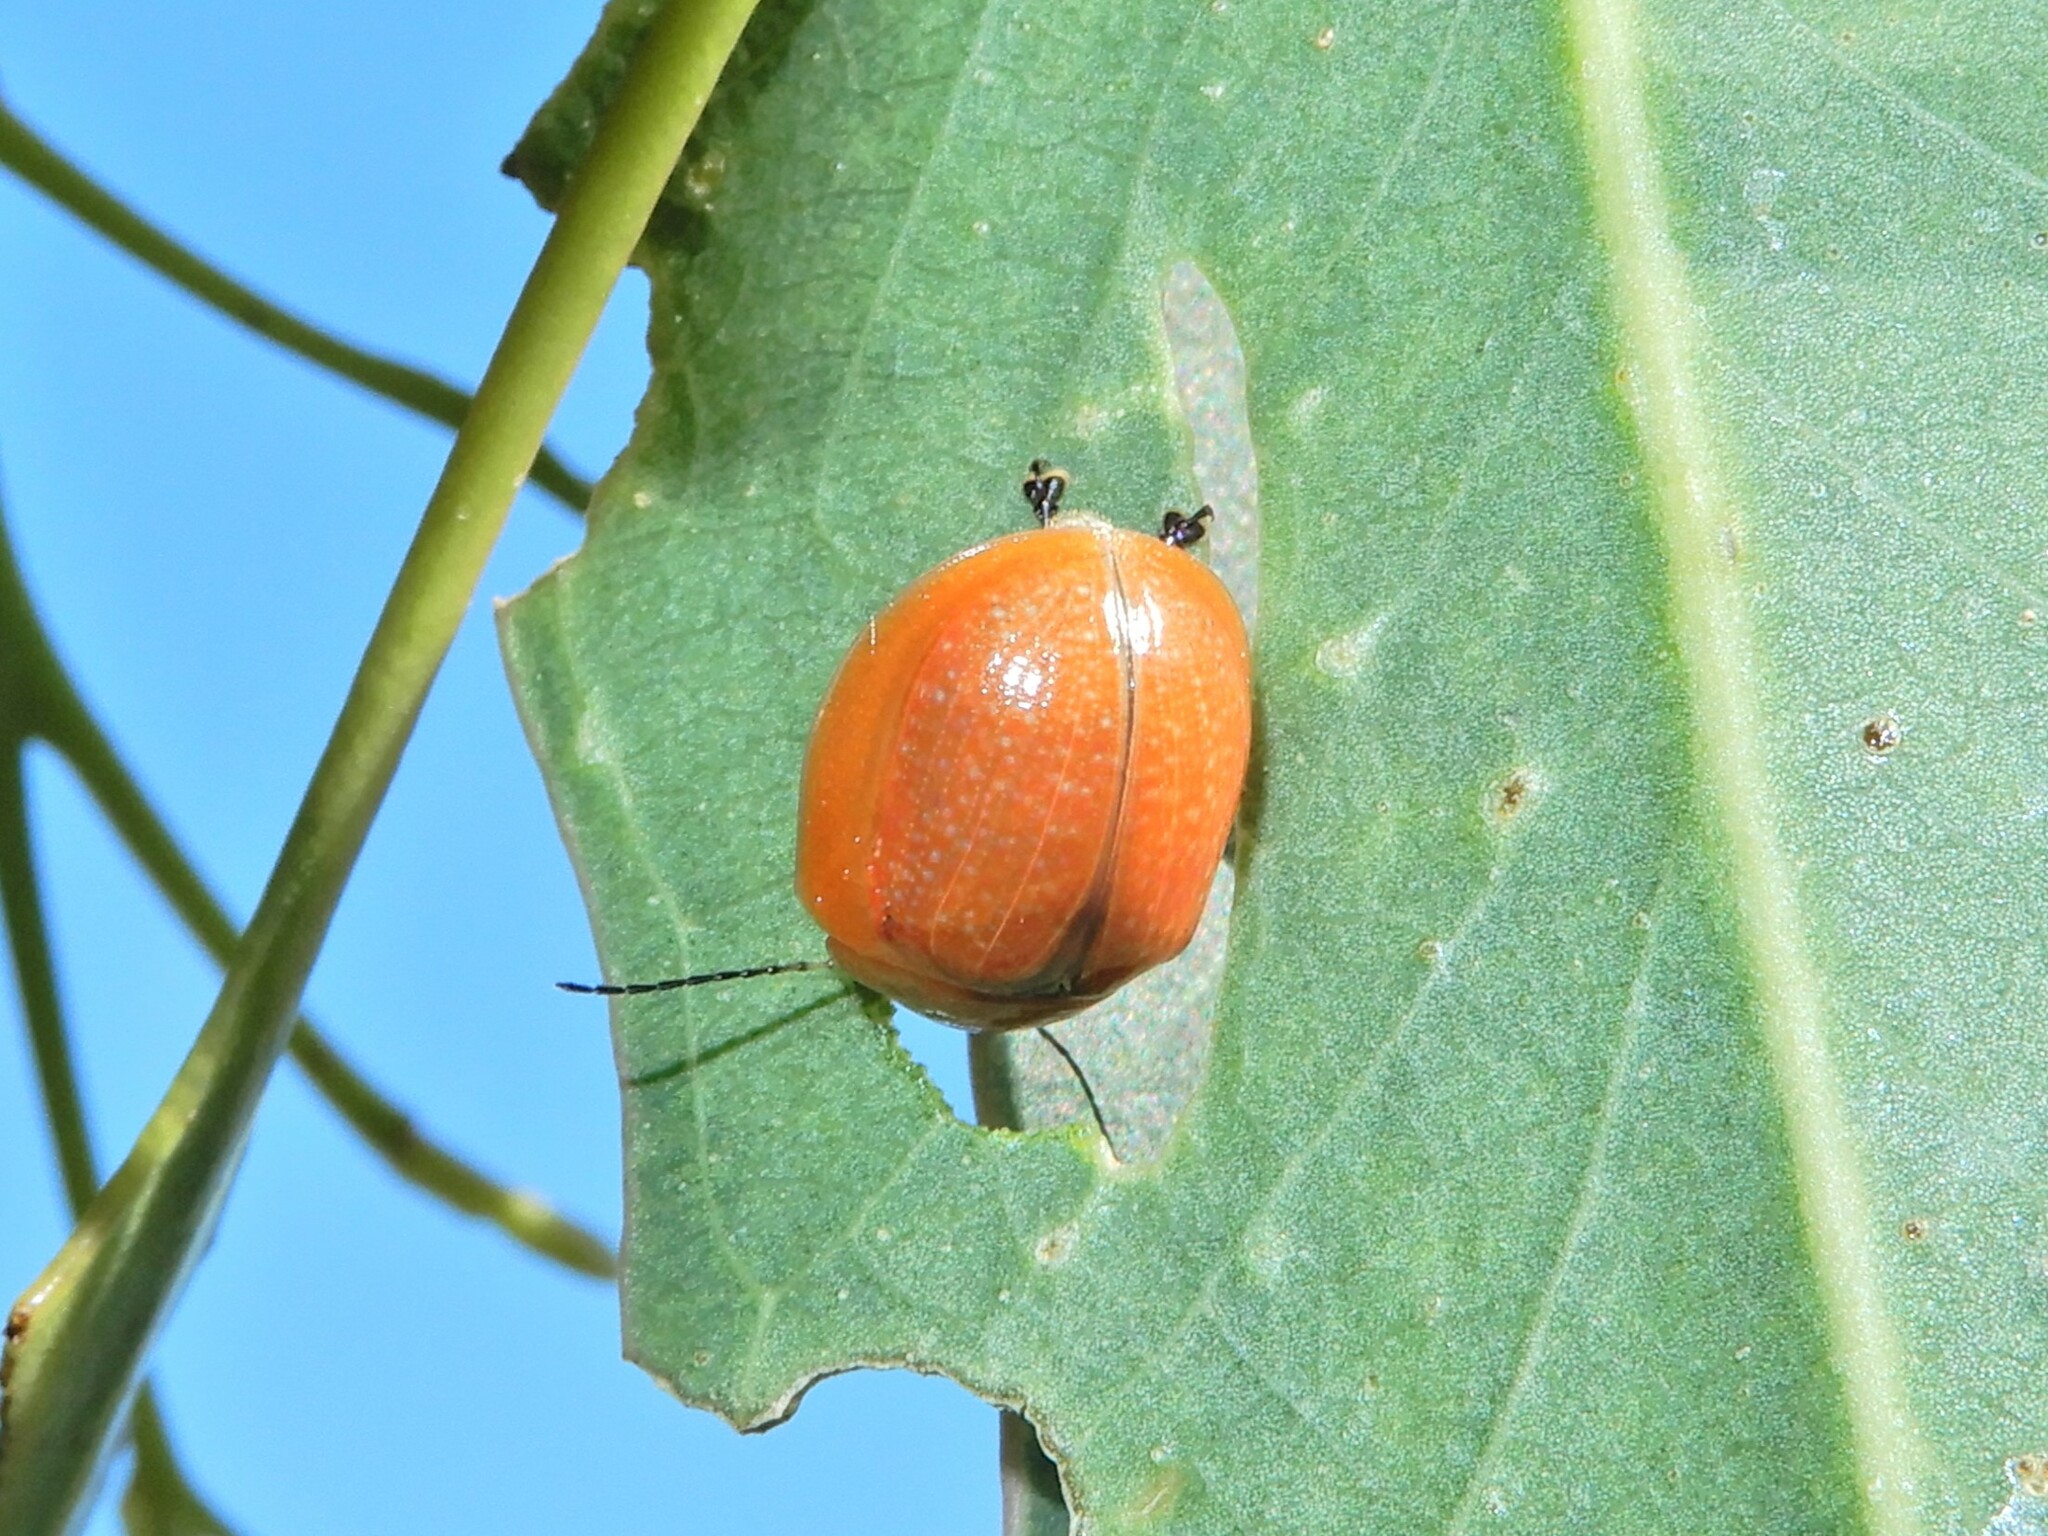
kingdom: Animalia
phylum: Arthropoda
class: Insecta
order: Coleoptera
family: Chrysomelidae
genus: Paropsisterna
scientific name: Paropsisterna cloelia
